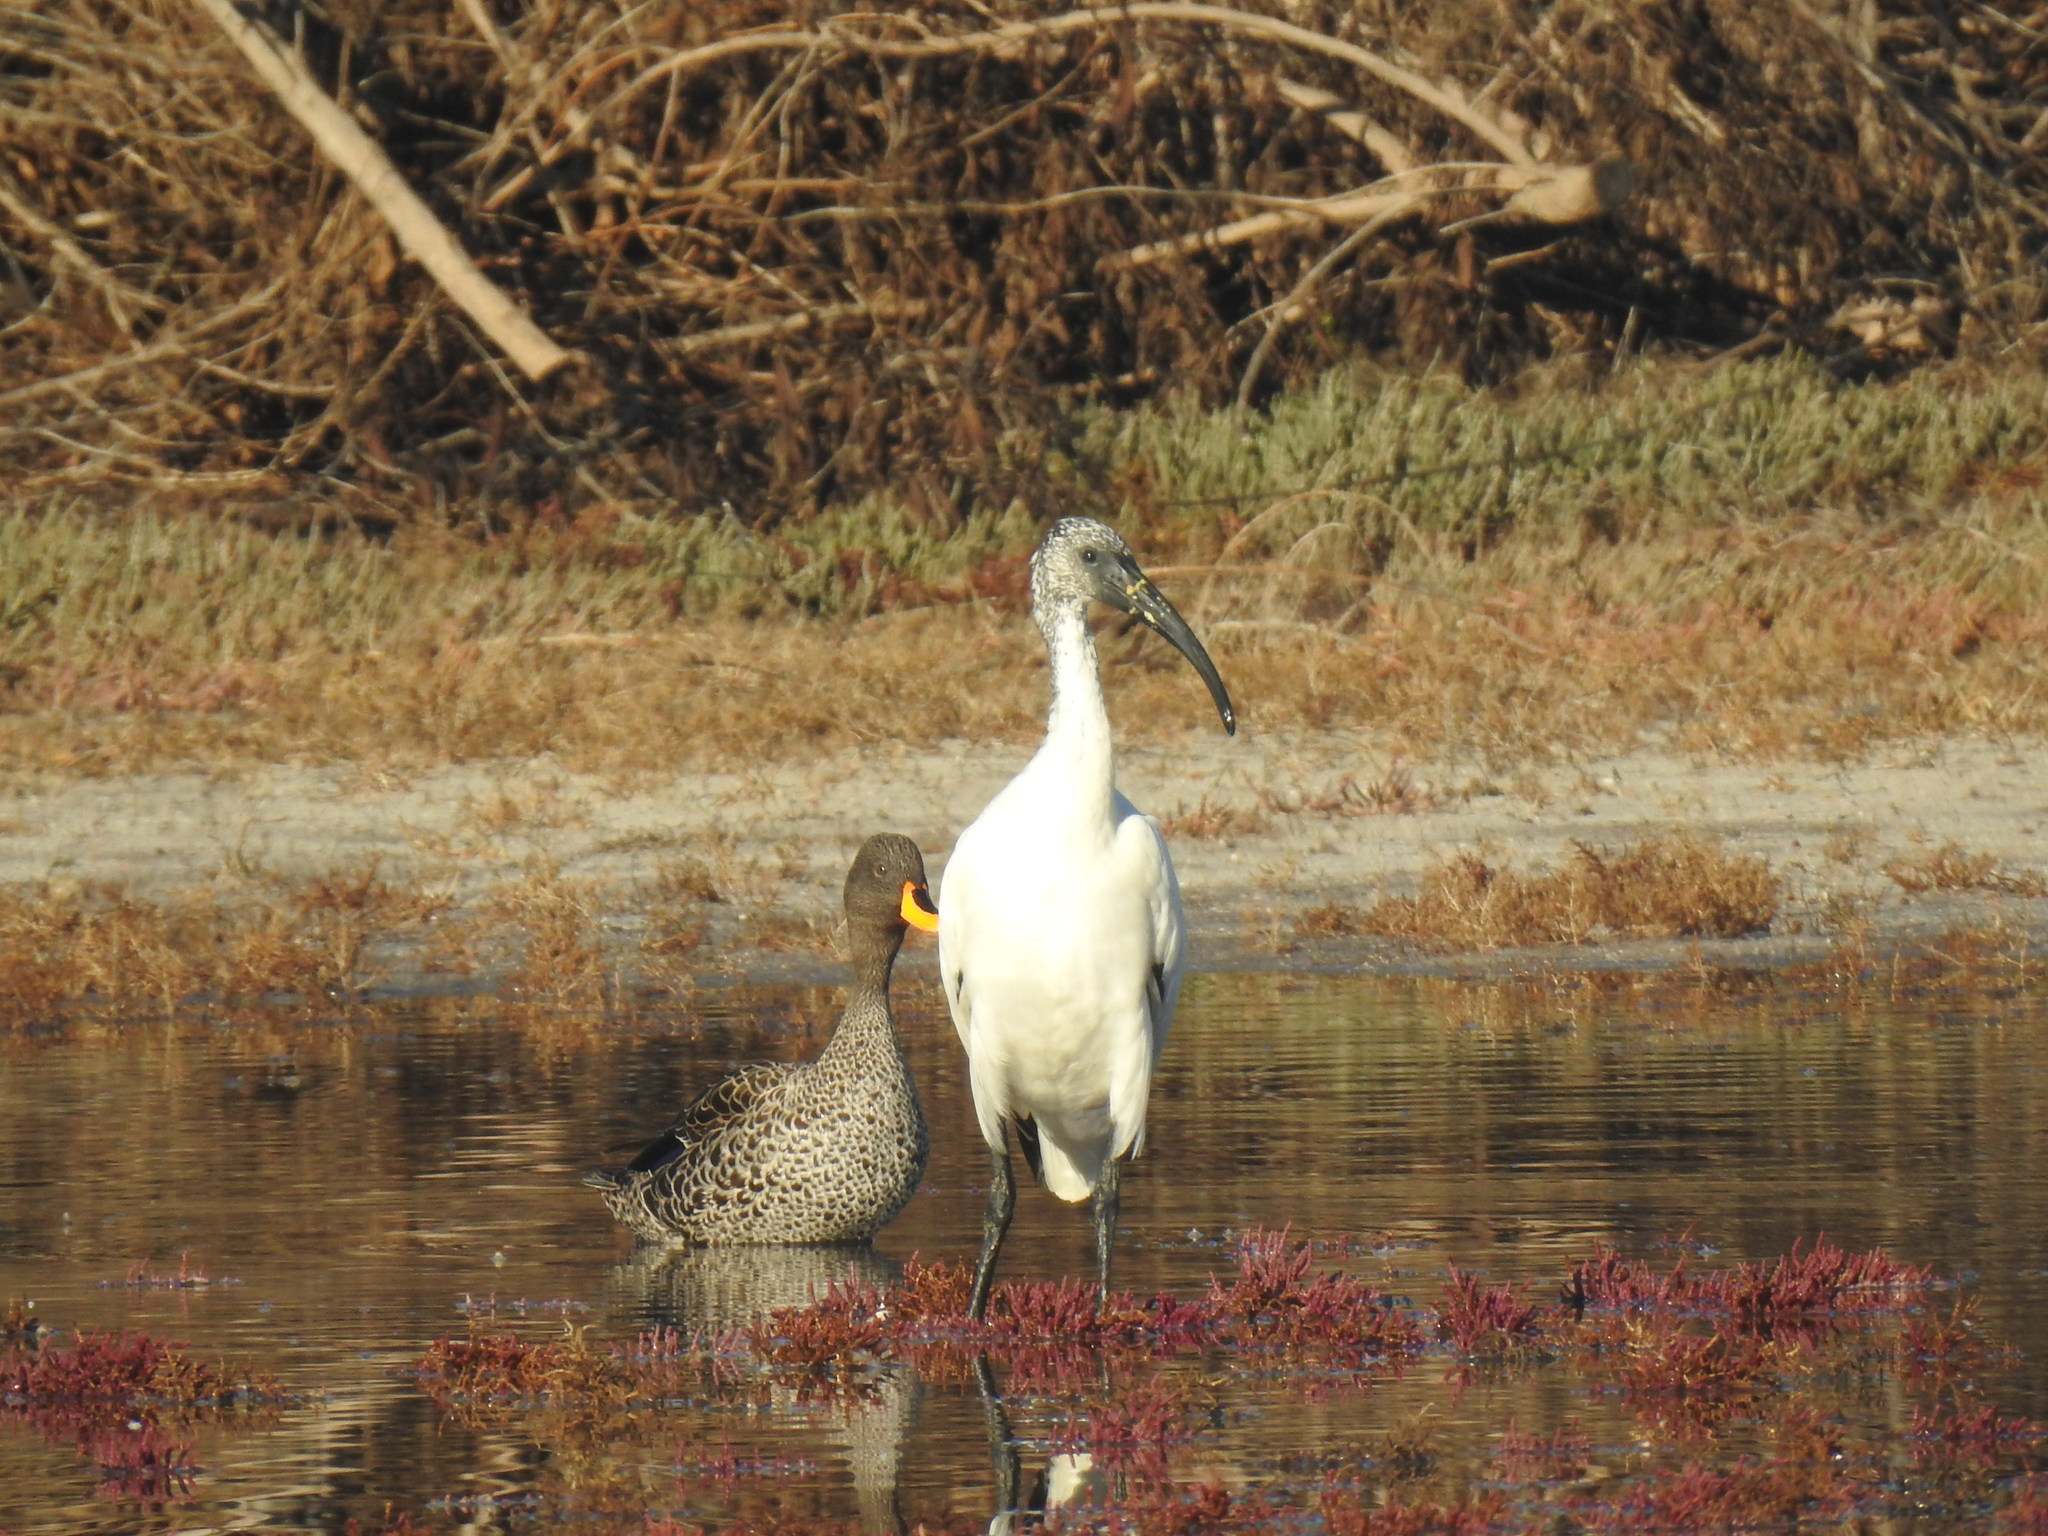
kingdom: Animalia
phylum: Chordata
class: Aves
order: Pelecaniformes
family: Threskiornithidae
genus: Threskiornis
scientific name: Threskiornis aethiopicus
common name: Sacred ibis
